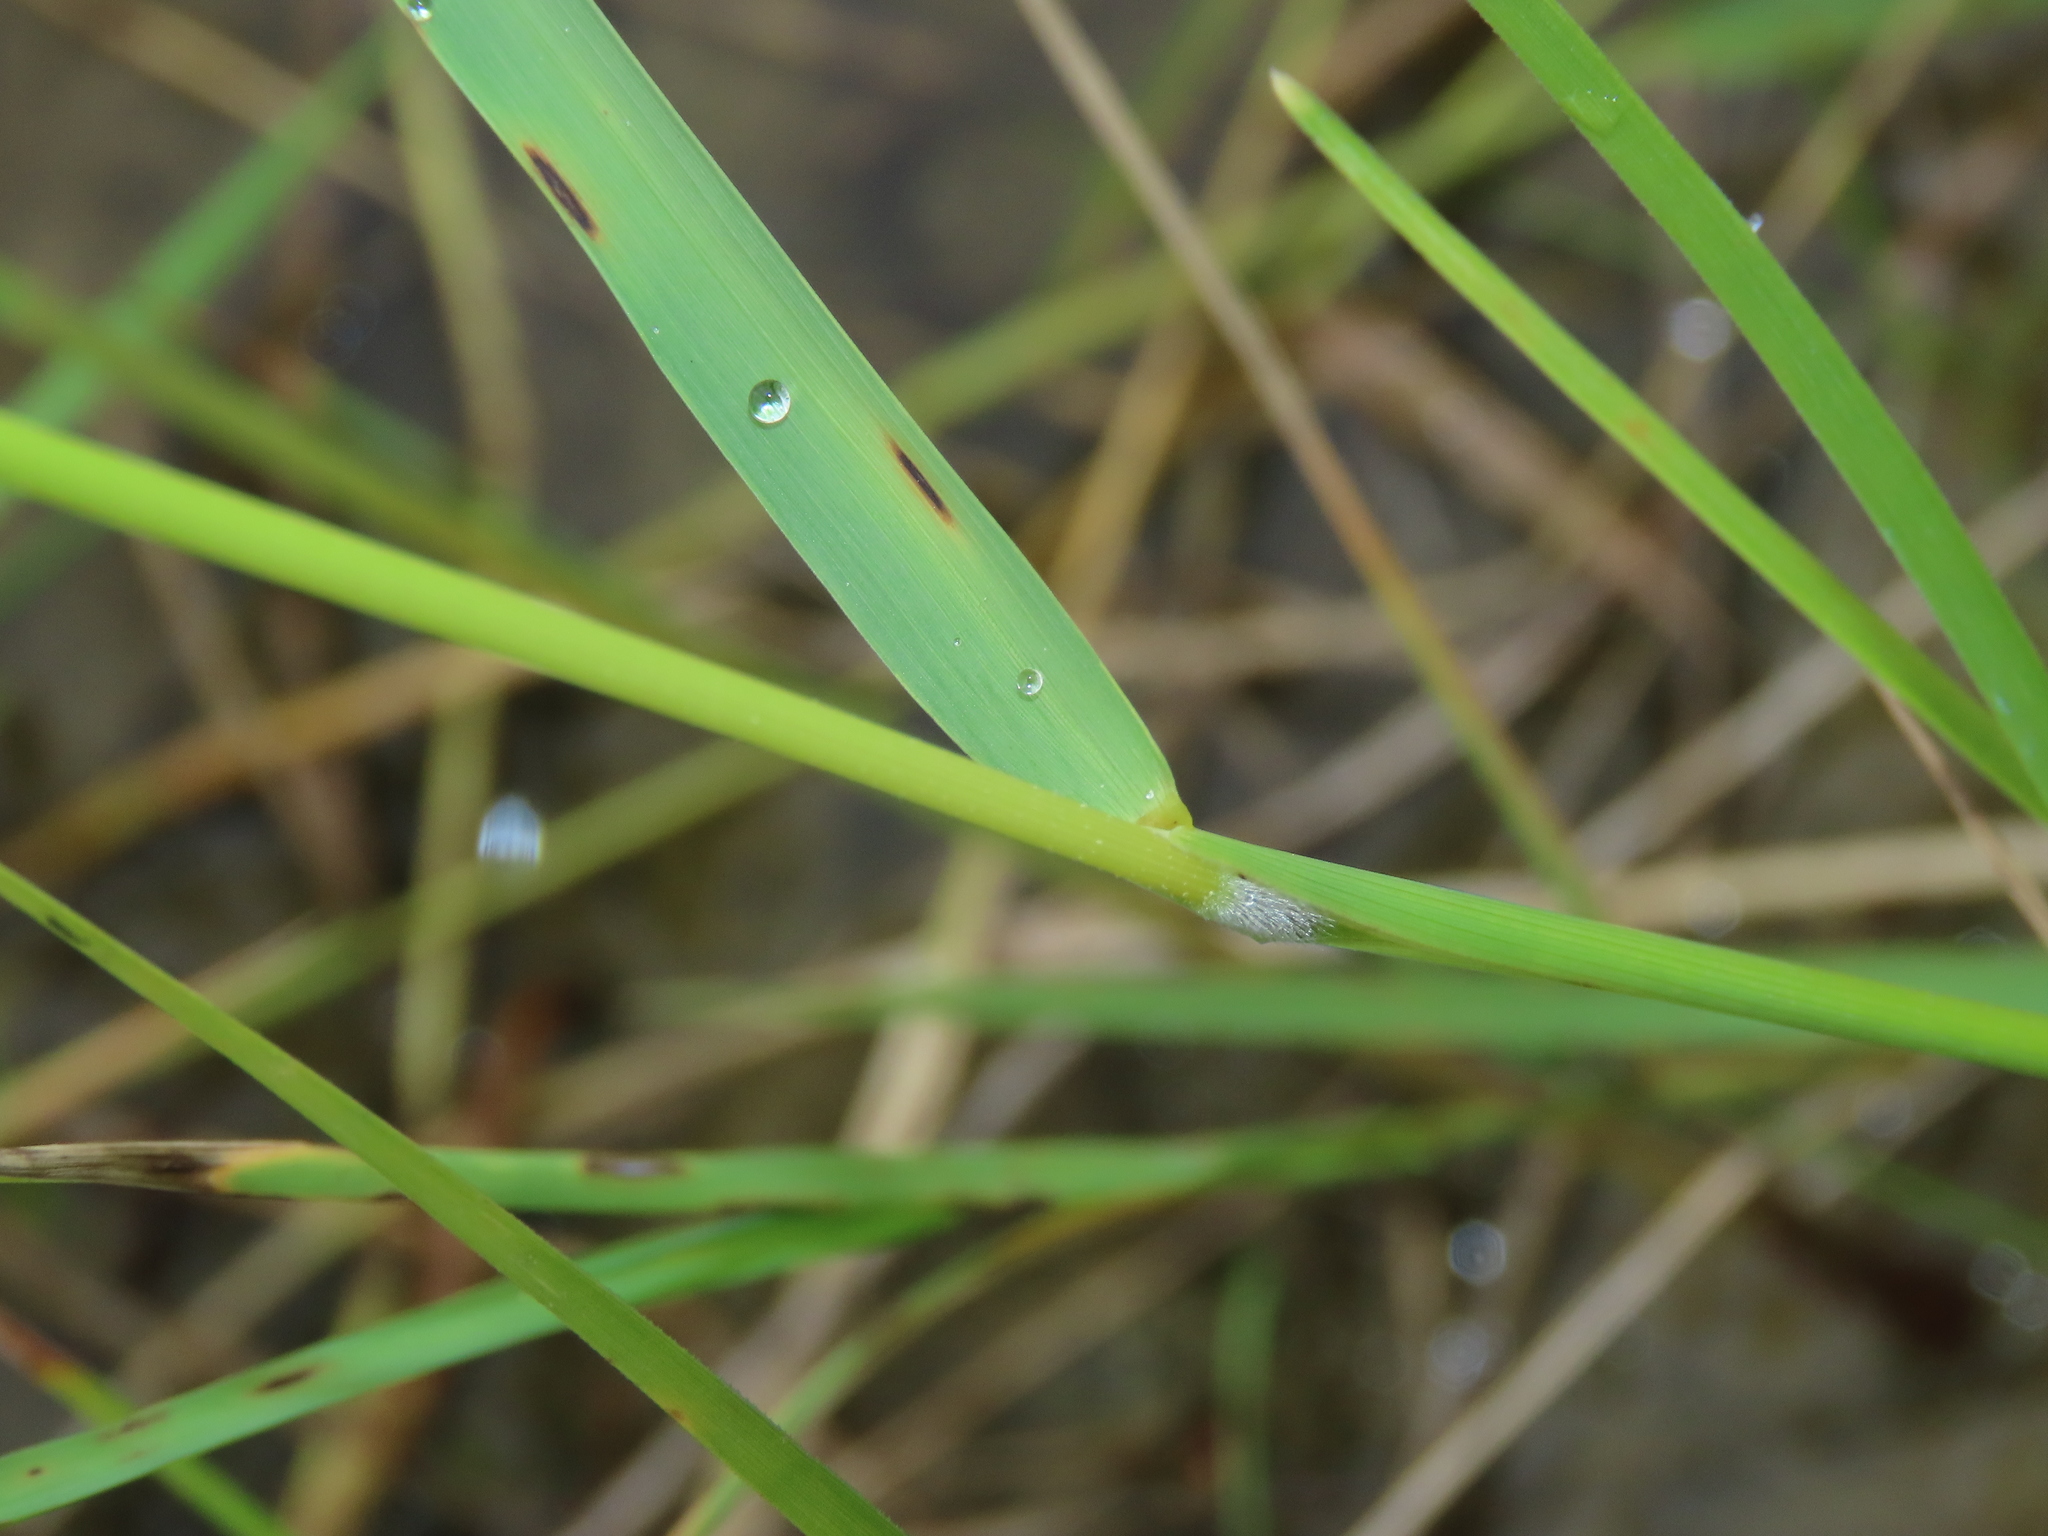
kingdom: Plantae
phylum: Tracheophyta
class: Liliopsida
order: Poales
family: Poaceae
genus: Leersia
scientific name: Leersia hexandra
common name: Southern cut grass
